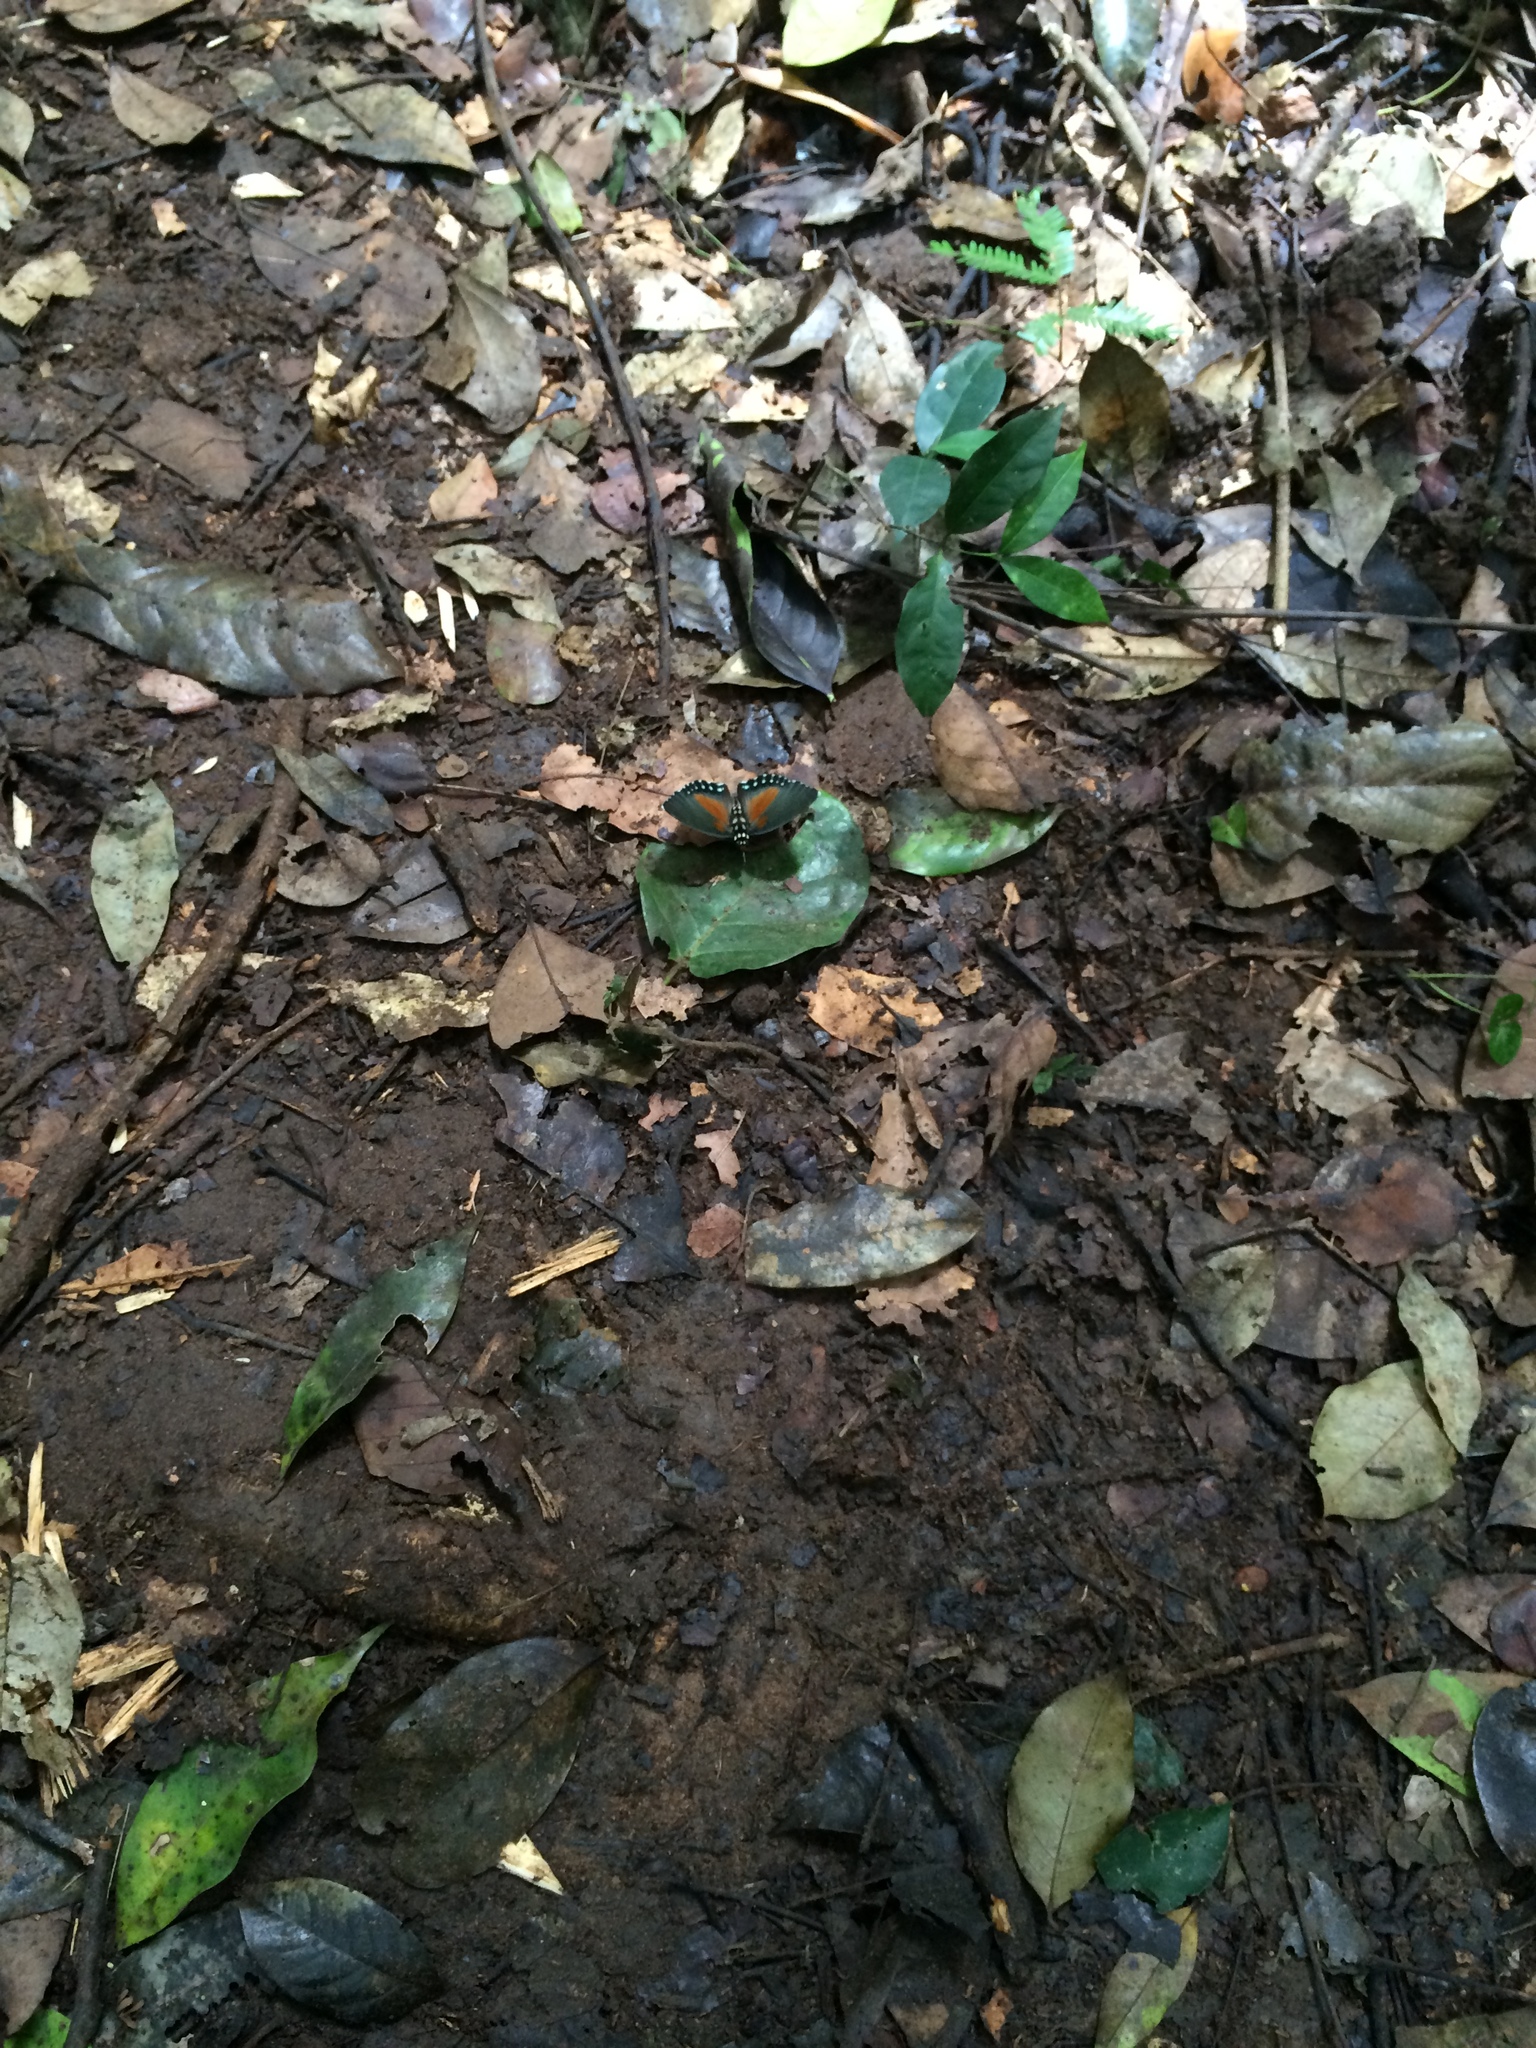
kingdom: Animalia
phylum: Arthropoda
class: Insecta
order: Lepidoptera
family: Nymphalidae
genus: Euphaedra
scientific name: Euphaedra edwardsii
